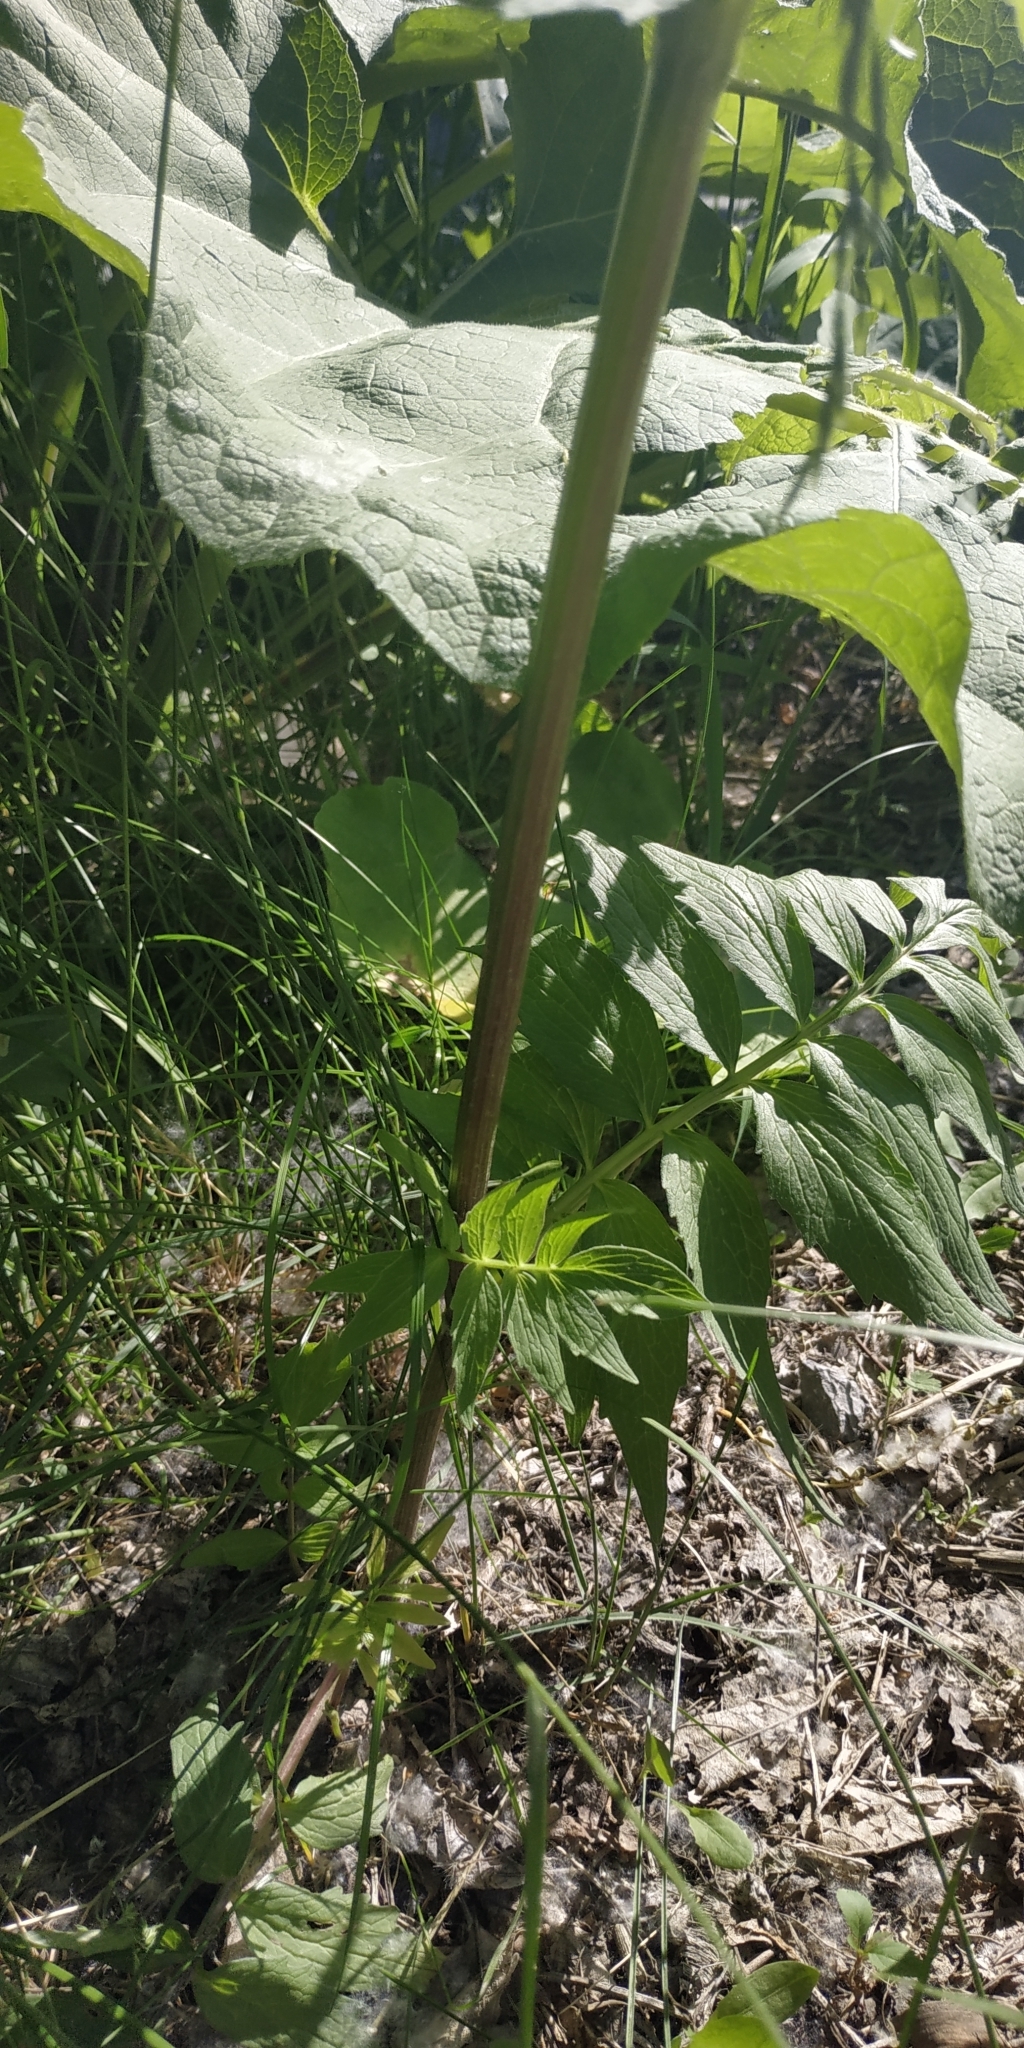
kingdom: Plantae
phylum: Tracheophyta
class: Magnoliopsida
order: Dipsacales
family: Caprifoliaceae
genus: Valeriana
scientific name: Valeriana wolgensis
